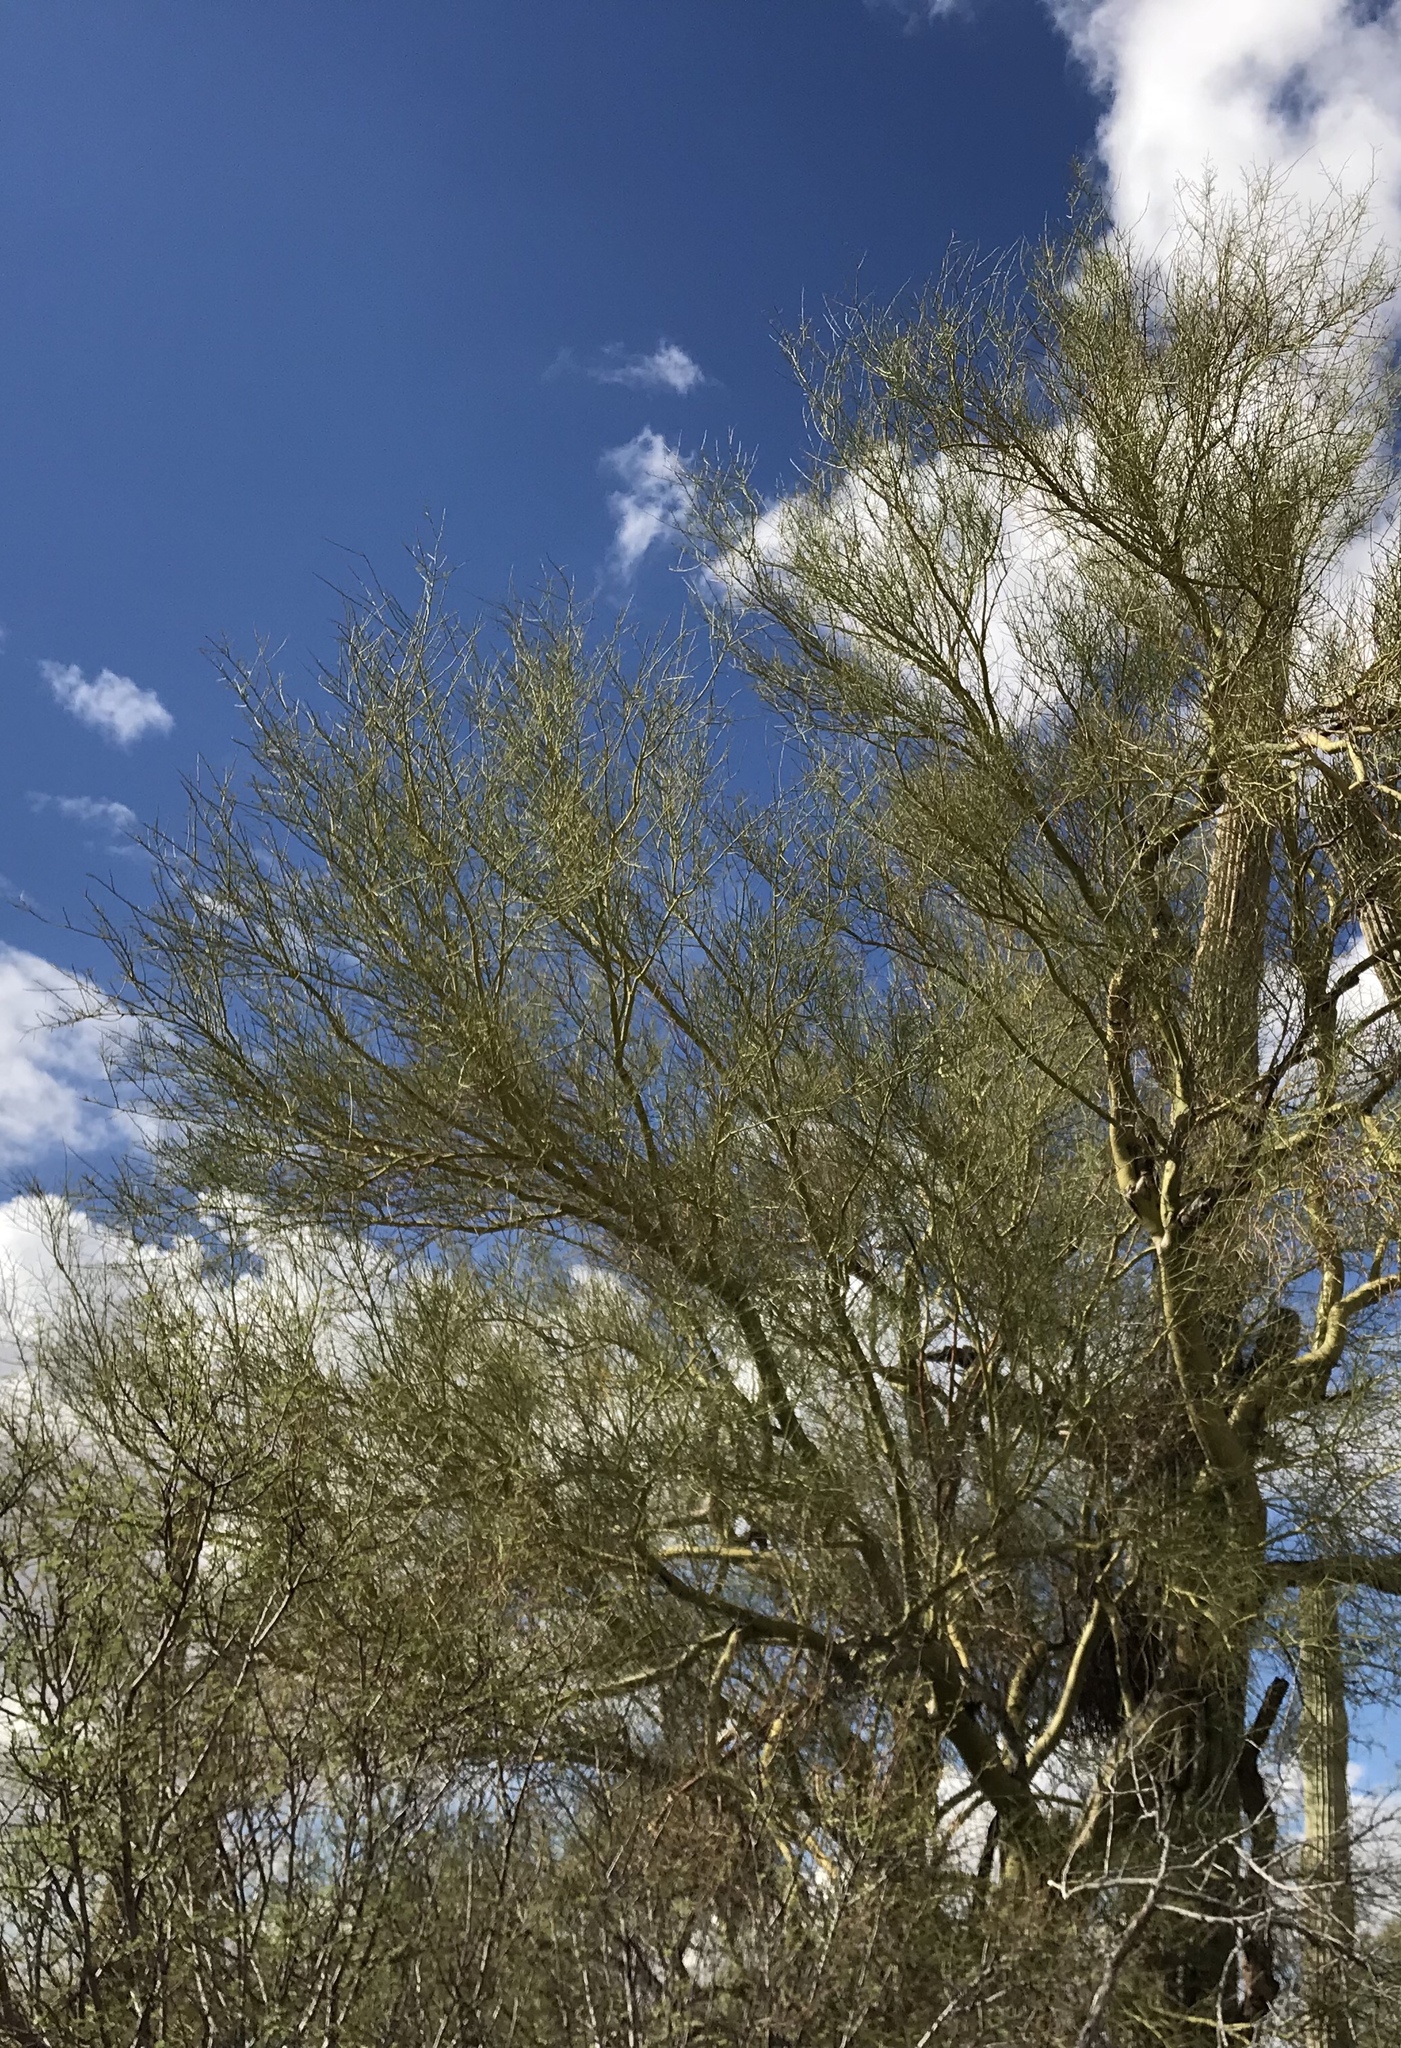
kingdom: Plantae
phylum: Tracheophyta
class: Magnoliopsida
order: Fabales
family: Fabaceae
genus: Parkinsonia
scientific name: Parkinsonia microphylla
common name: Yellow paloverde
